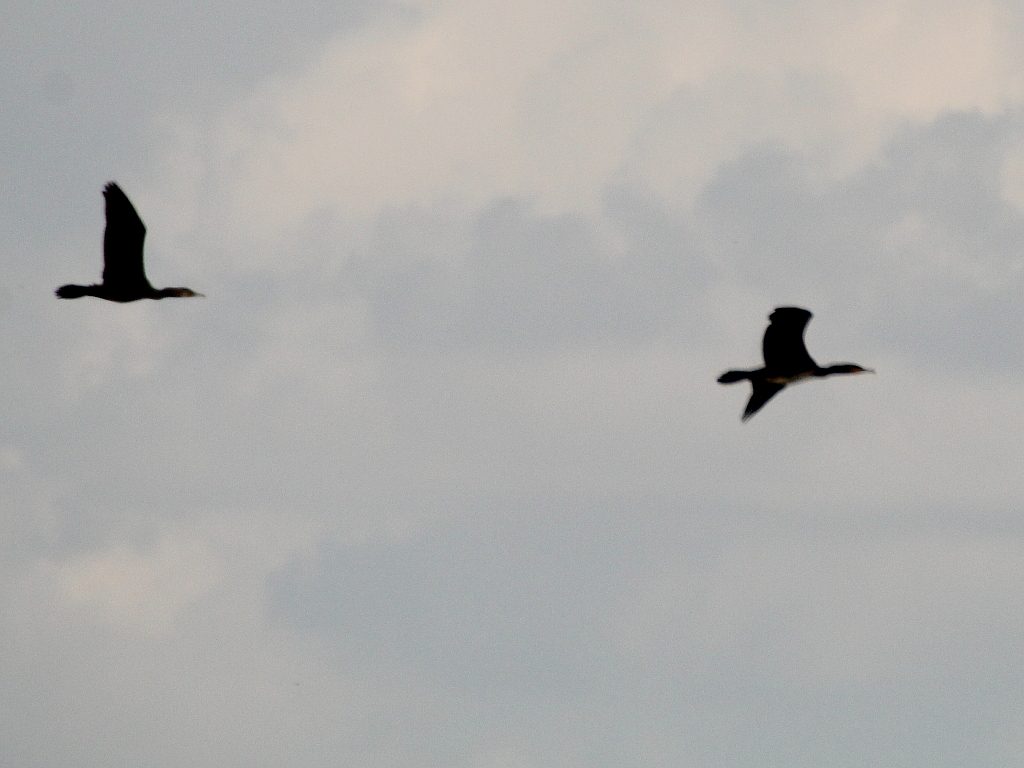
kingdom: Animalia
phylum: Chordata
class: Aves
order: Suliformes
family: Phalacrocoracidae
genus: Phalacrocorax
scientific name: Phalacrocorax carbo
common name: Great cormorant
